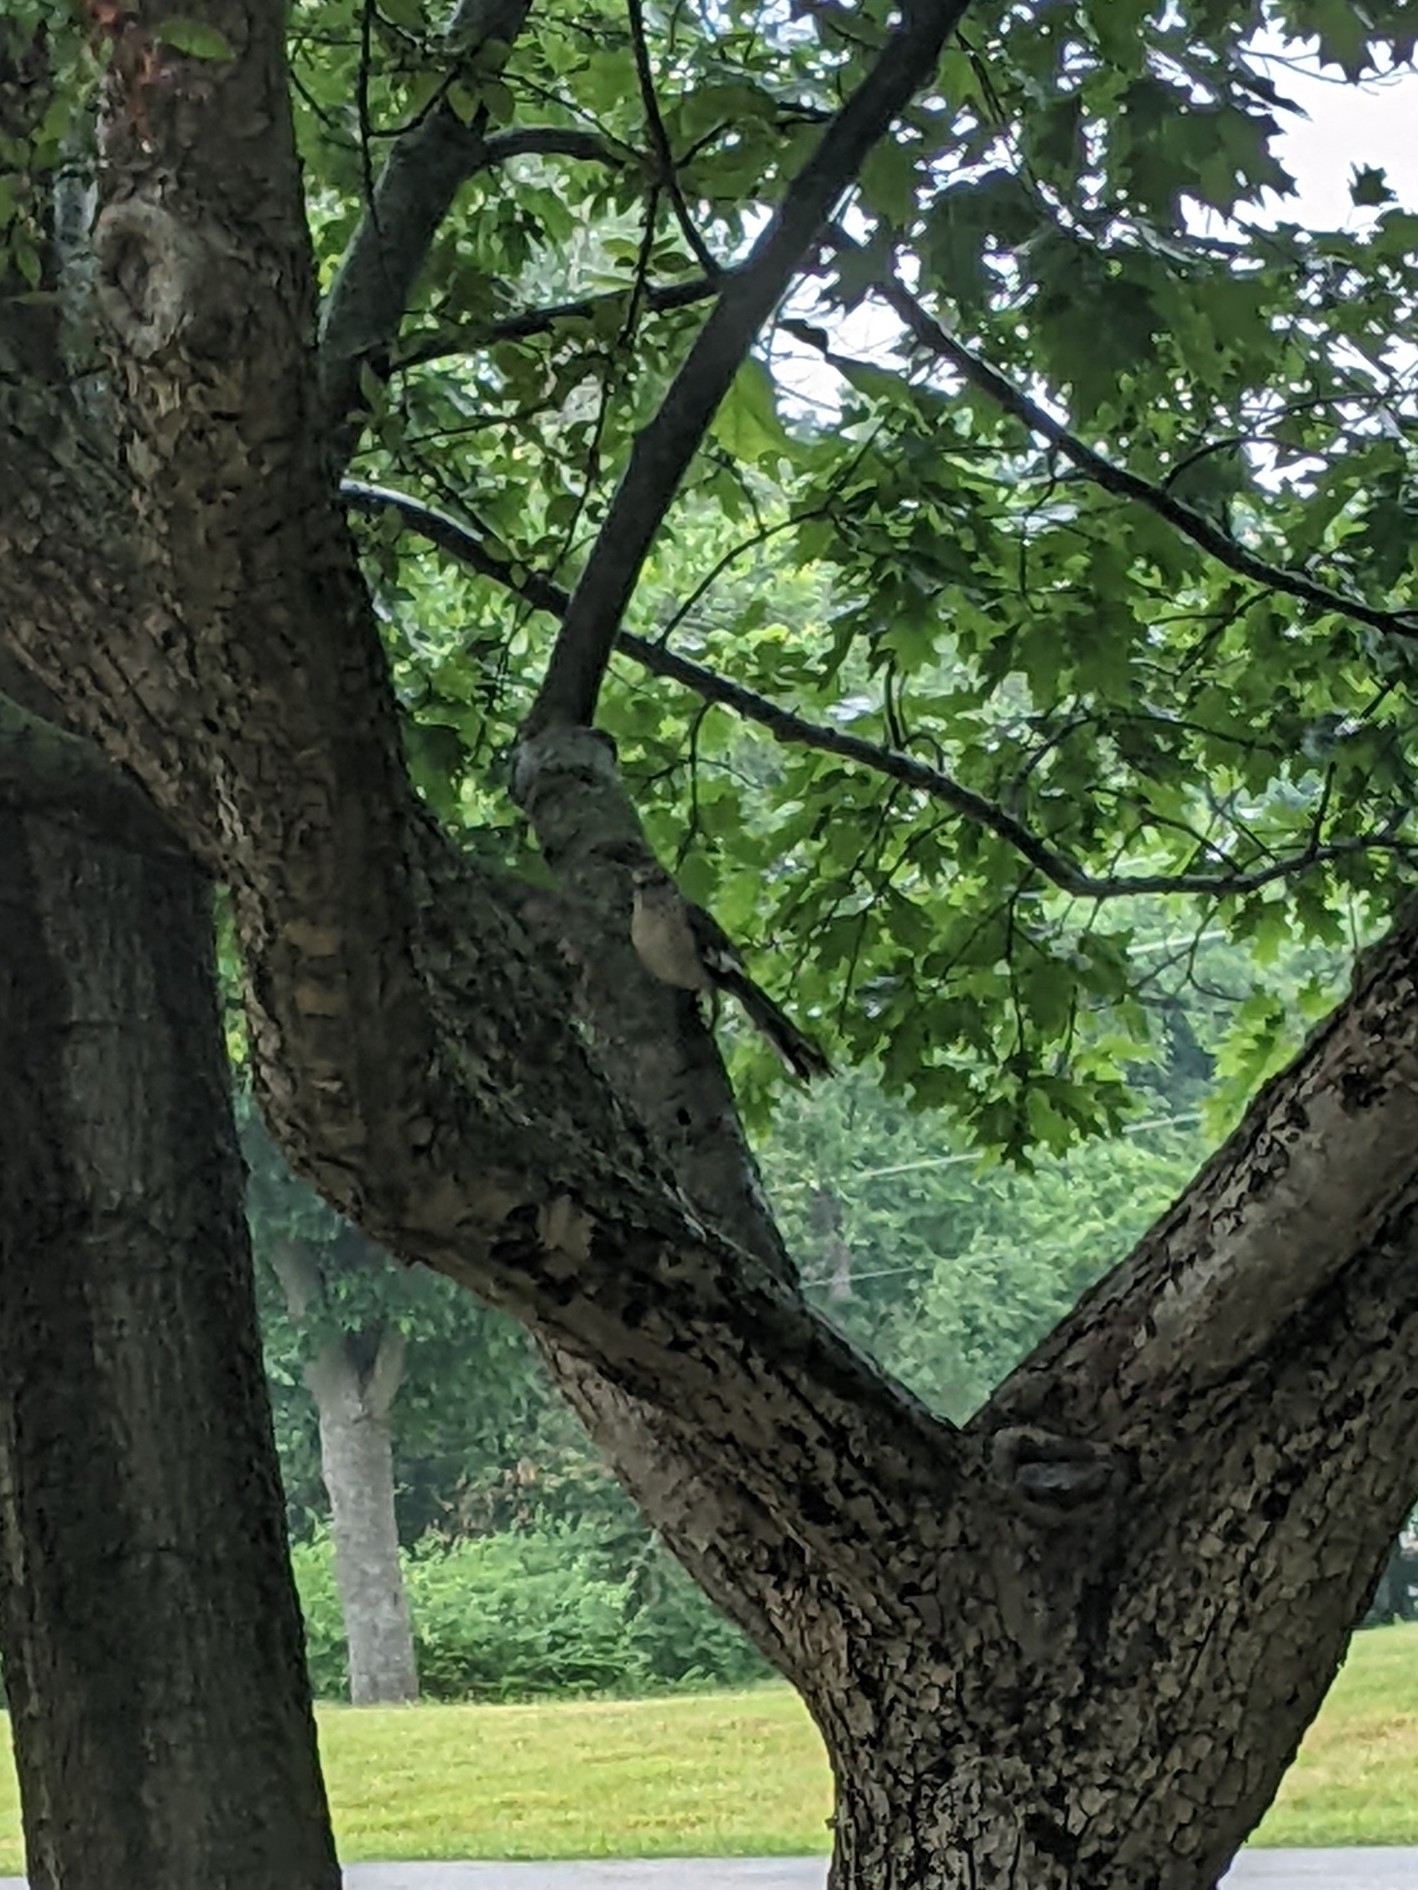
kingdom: Animalia
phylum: Chordata
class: Aves
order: Passeriformes
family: Mimidae
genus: Mimus
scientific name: Mimus polyglottos
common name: Northern mockingbird
